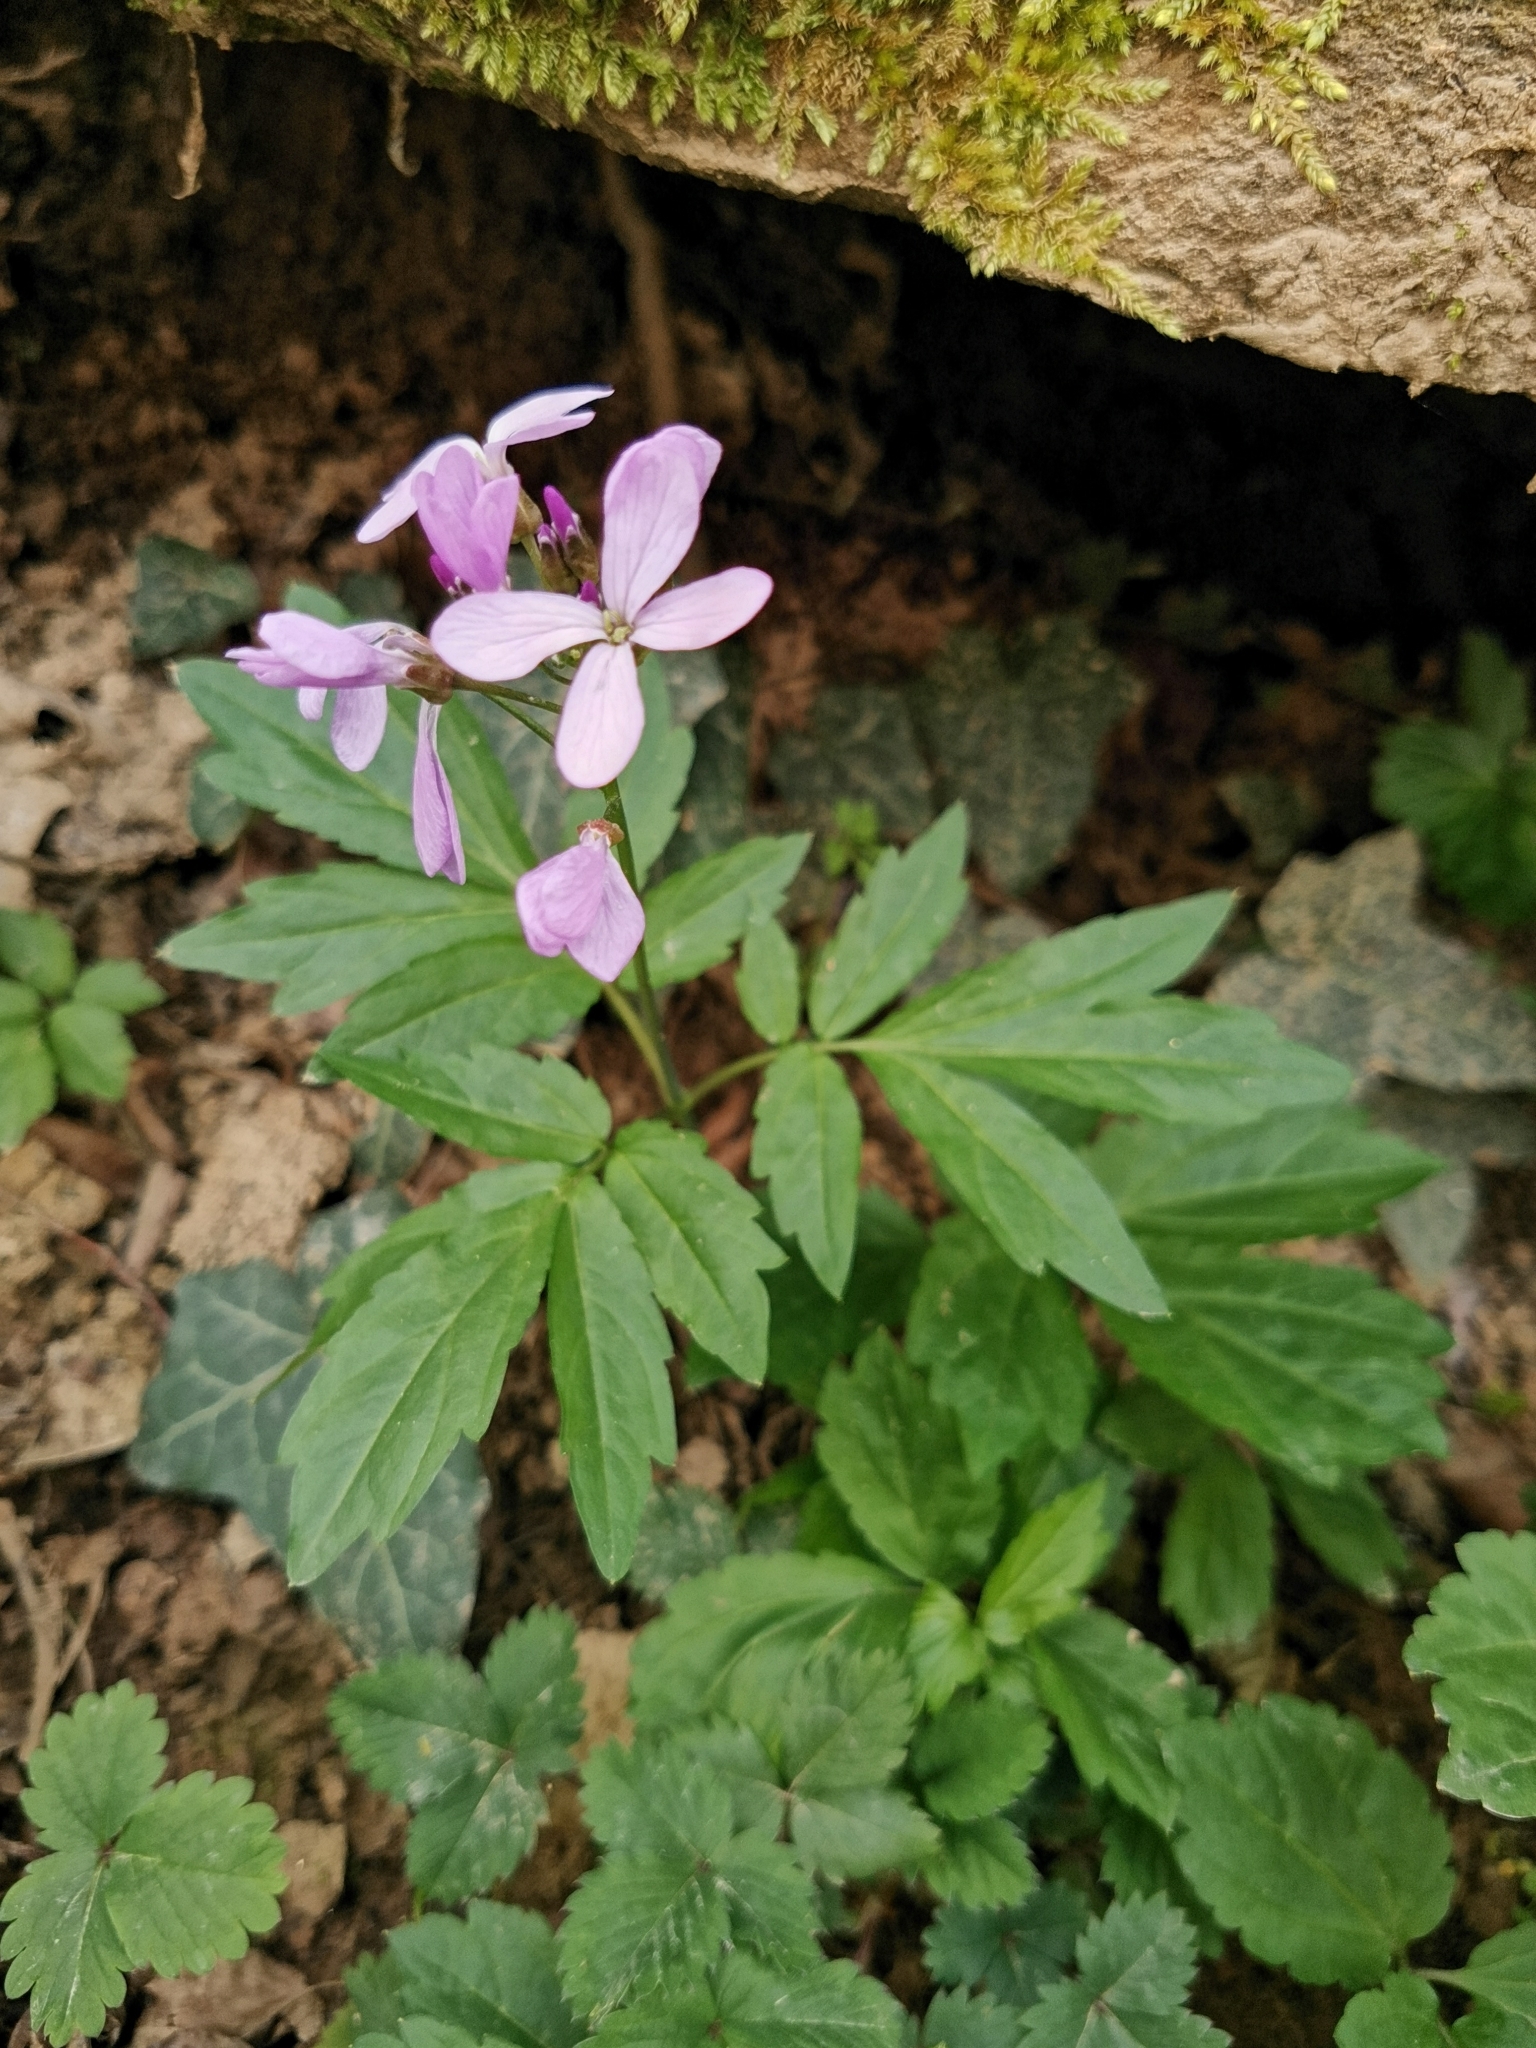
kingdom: Plantae
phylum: Tracheophyta
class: Magnoliopsida
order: Brassicales
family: Brassicaceae
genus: Cardamine
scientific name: Cardamine quinquefolia
